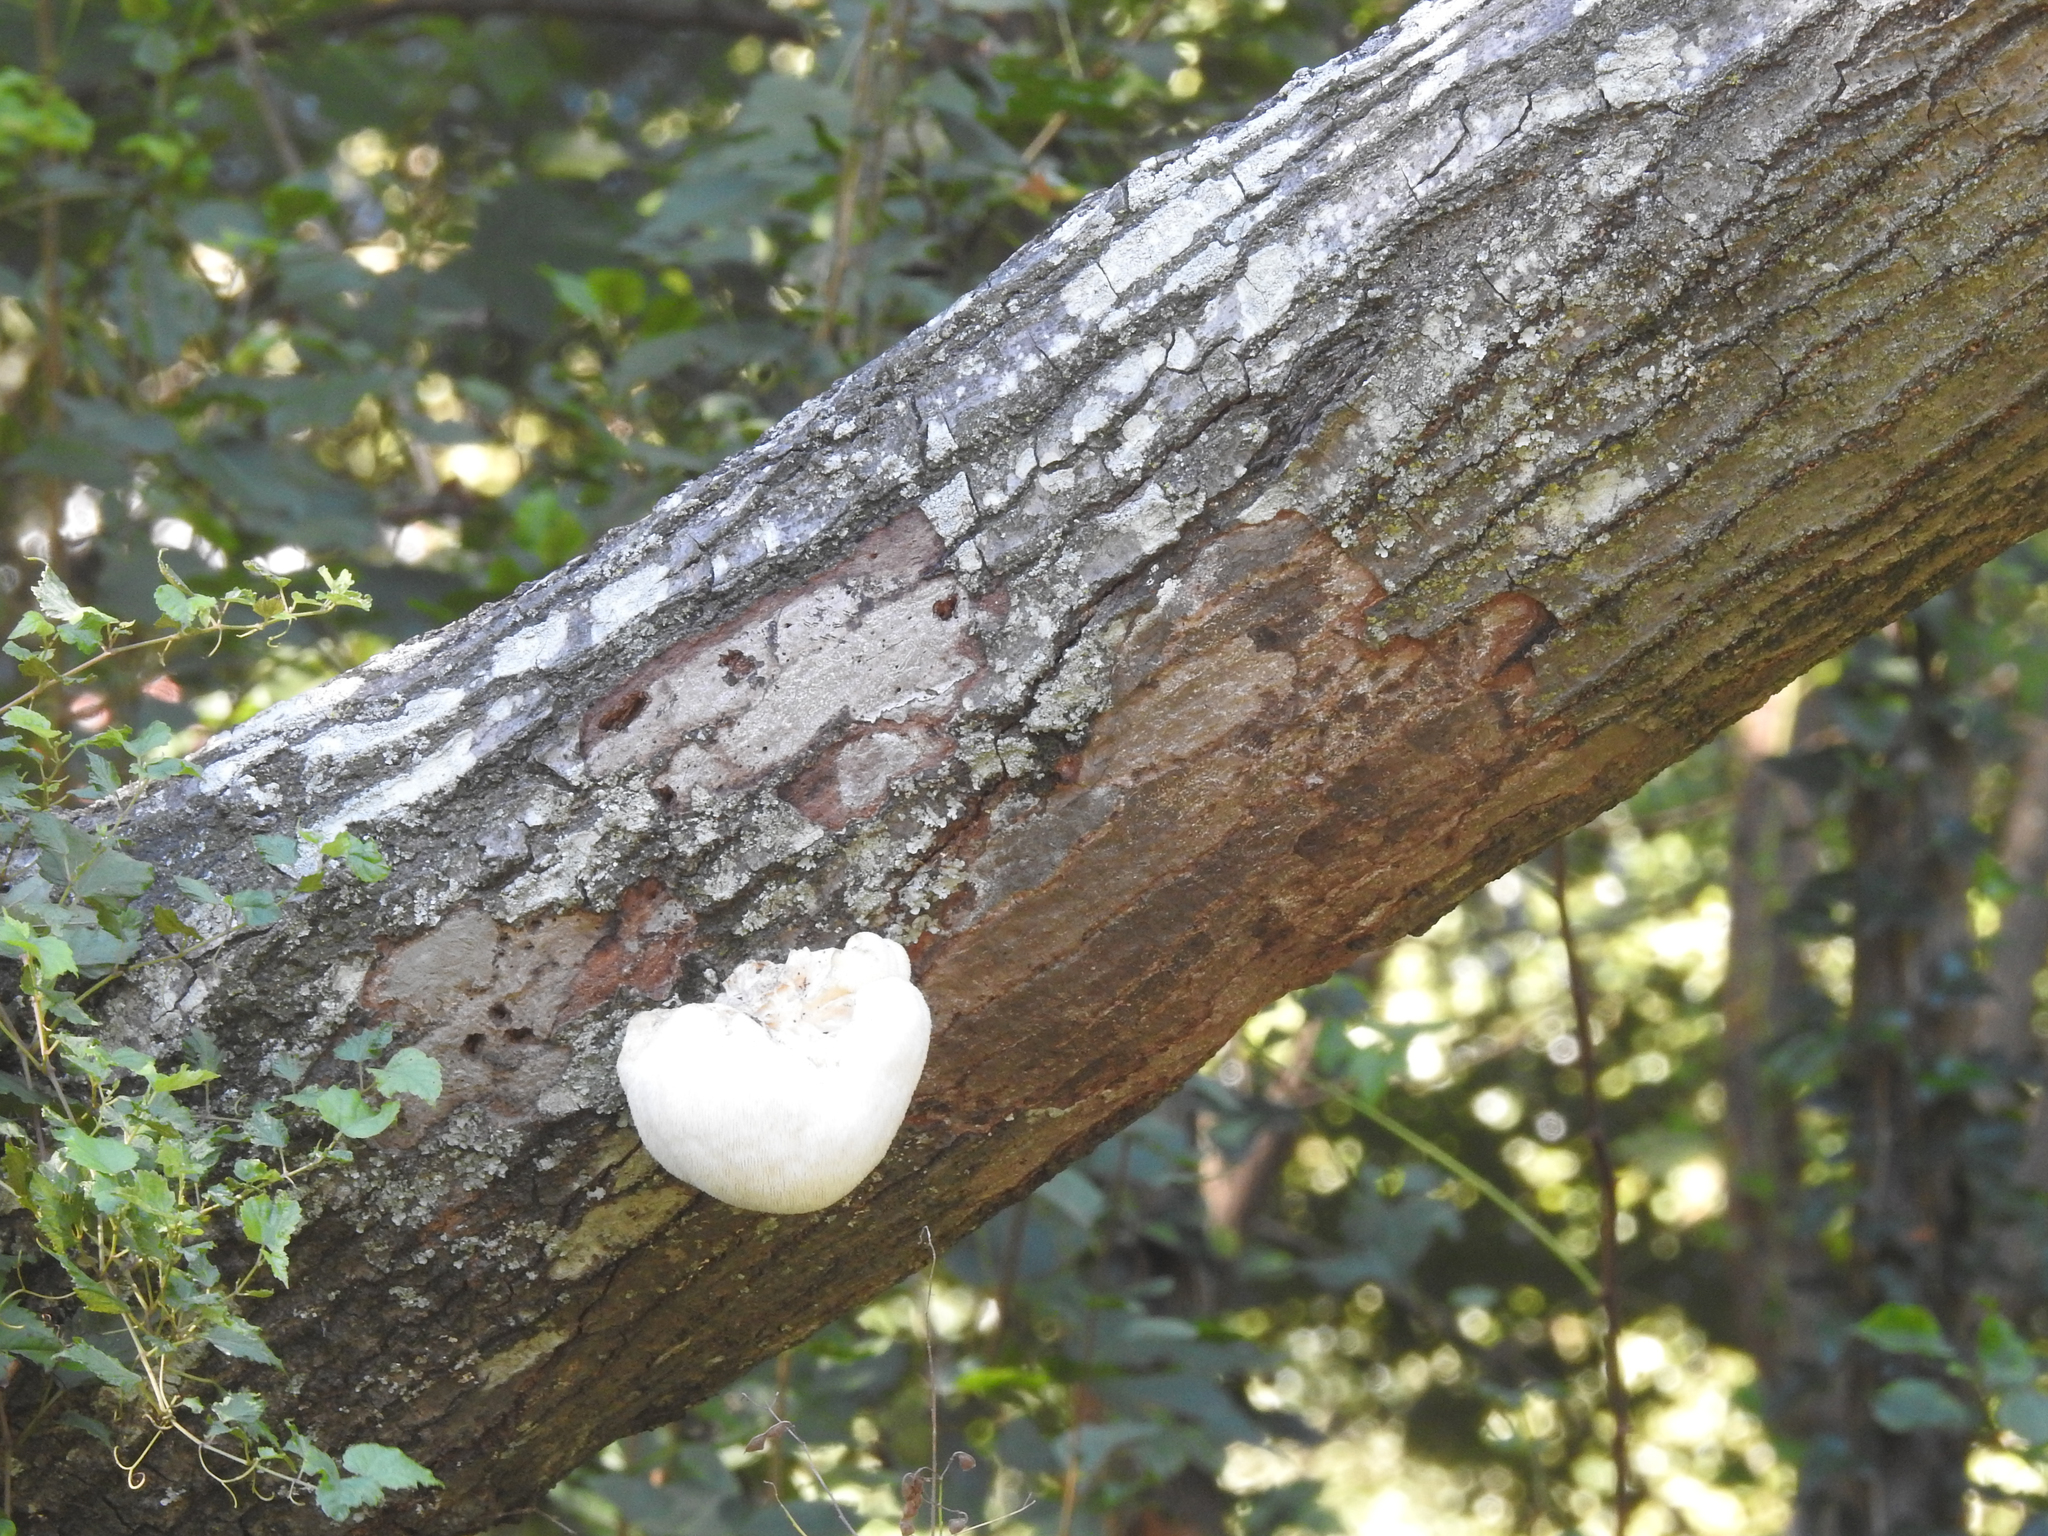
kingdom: Fungi
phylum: Basidiomycota
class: Agaricomycetes
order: Russulales
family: Hericiaceae
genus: Hericium
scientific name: Hericium erinaceus
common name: Bearded tooth
